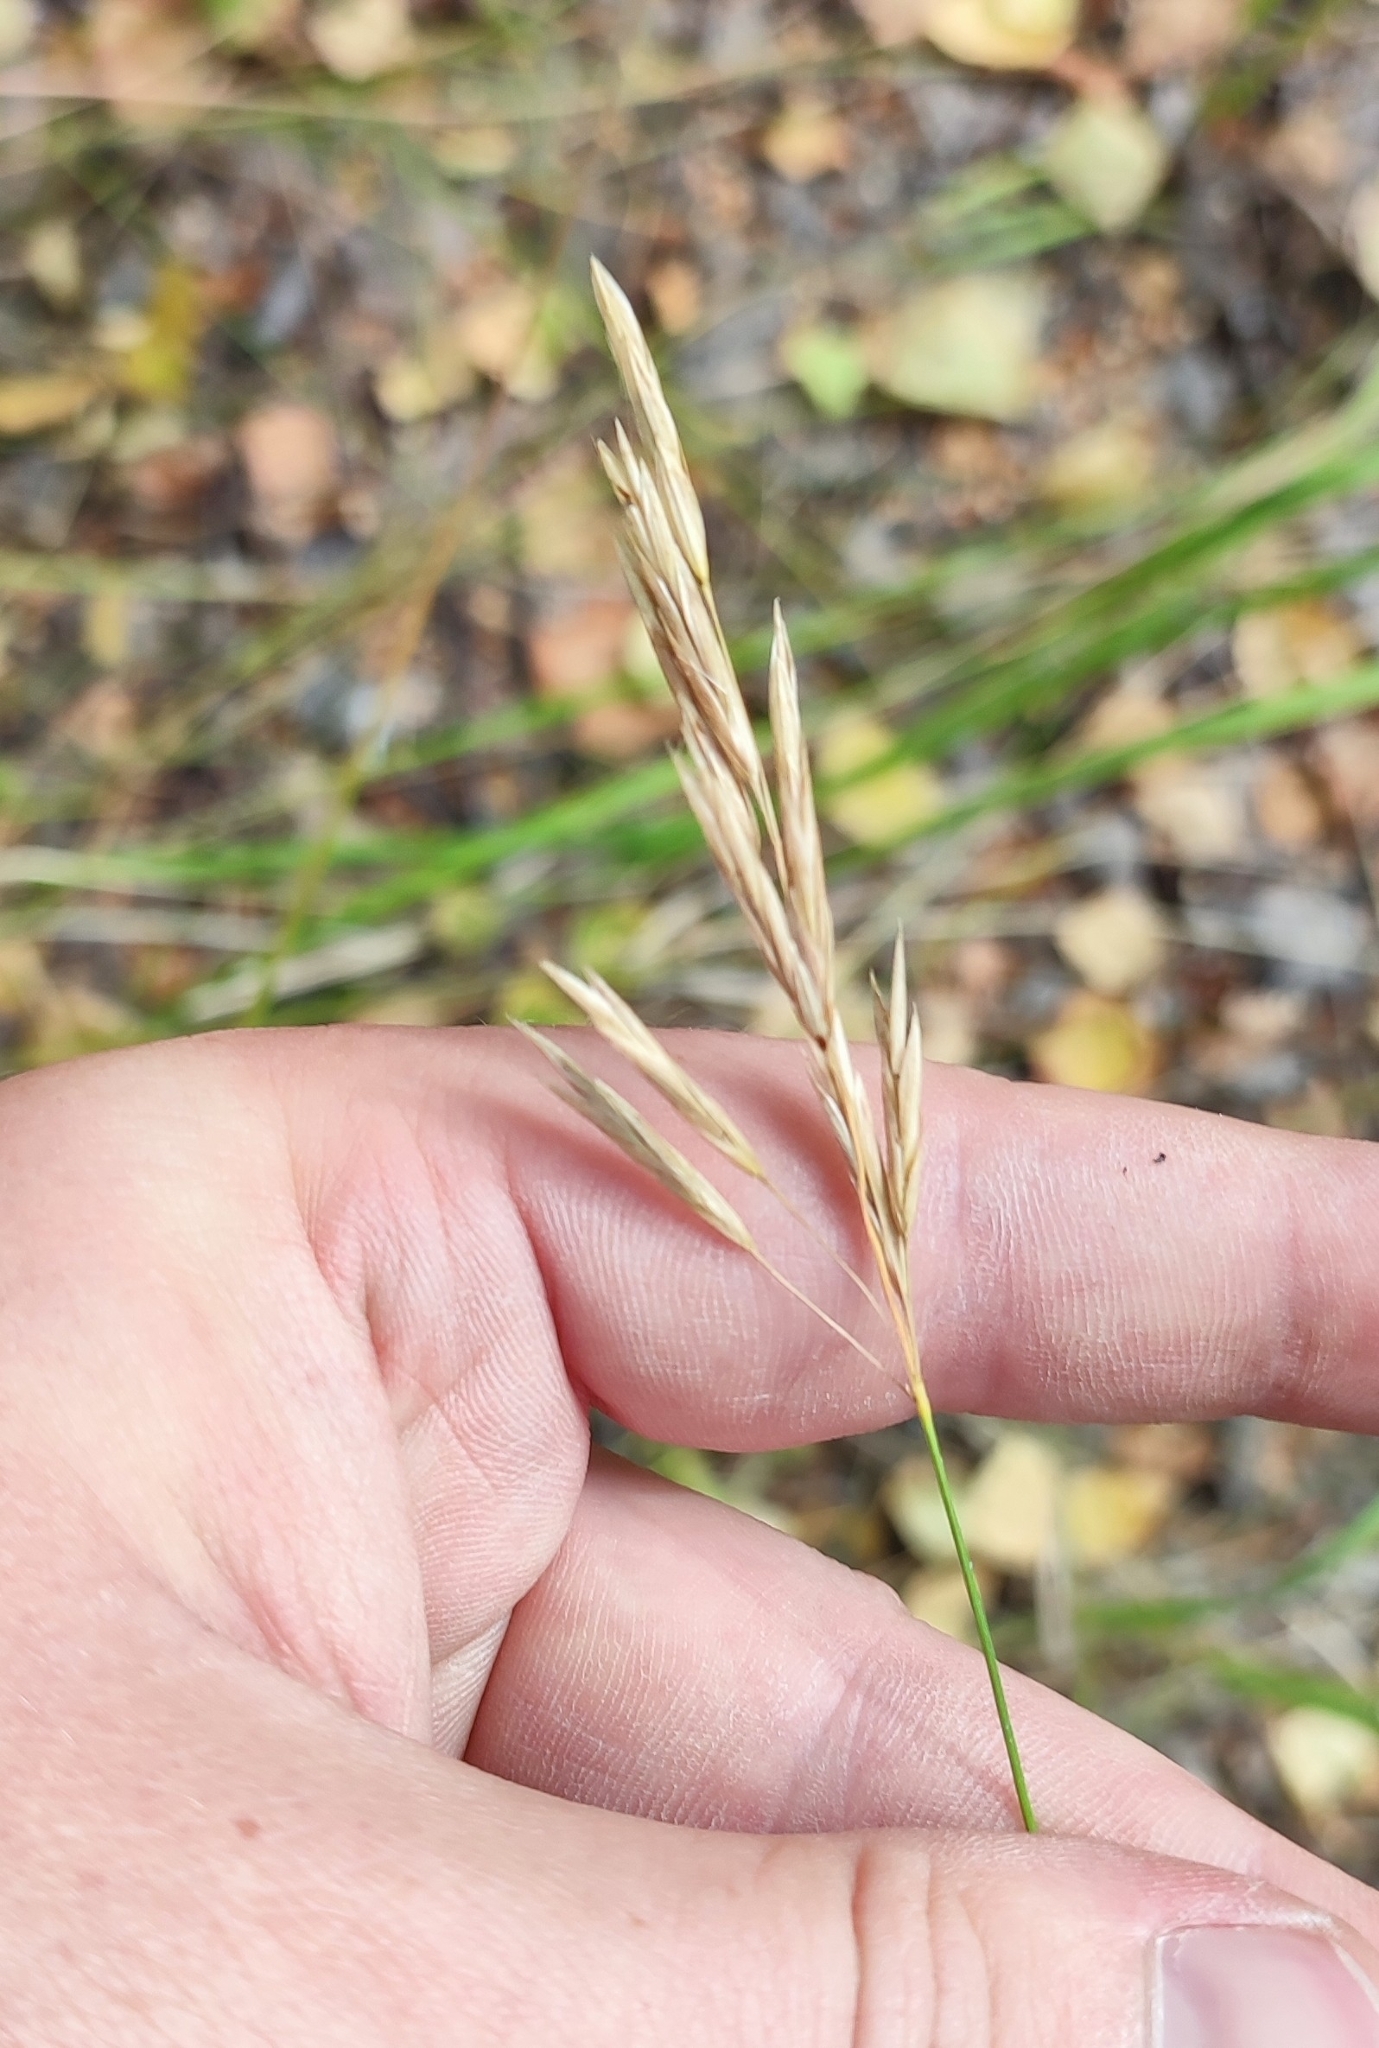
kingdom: Plantae
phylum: Tracheophyta
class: Liliopsida
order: Poales
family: Poaceae
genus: Bromus
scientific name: Bromus inermis
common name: Smooth brome
